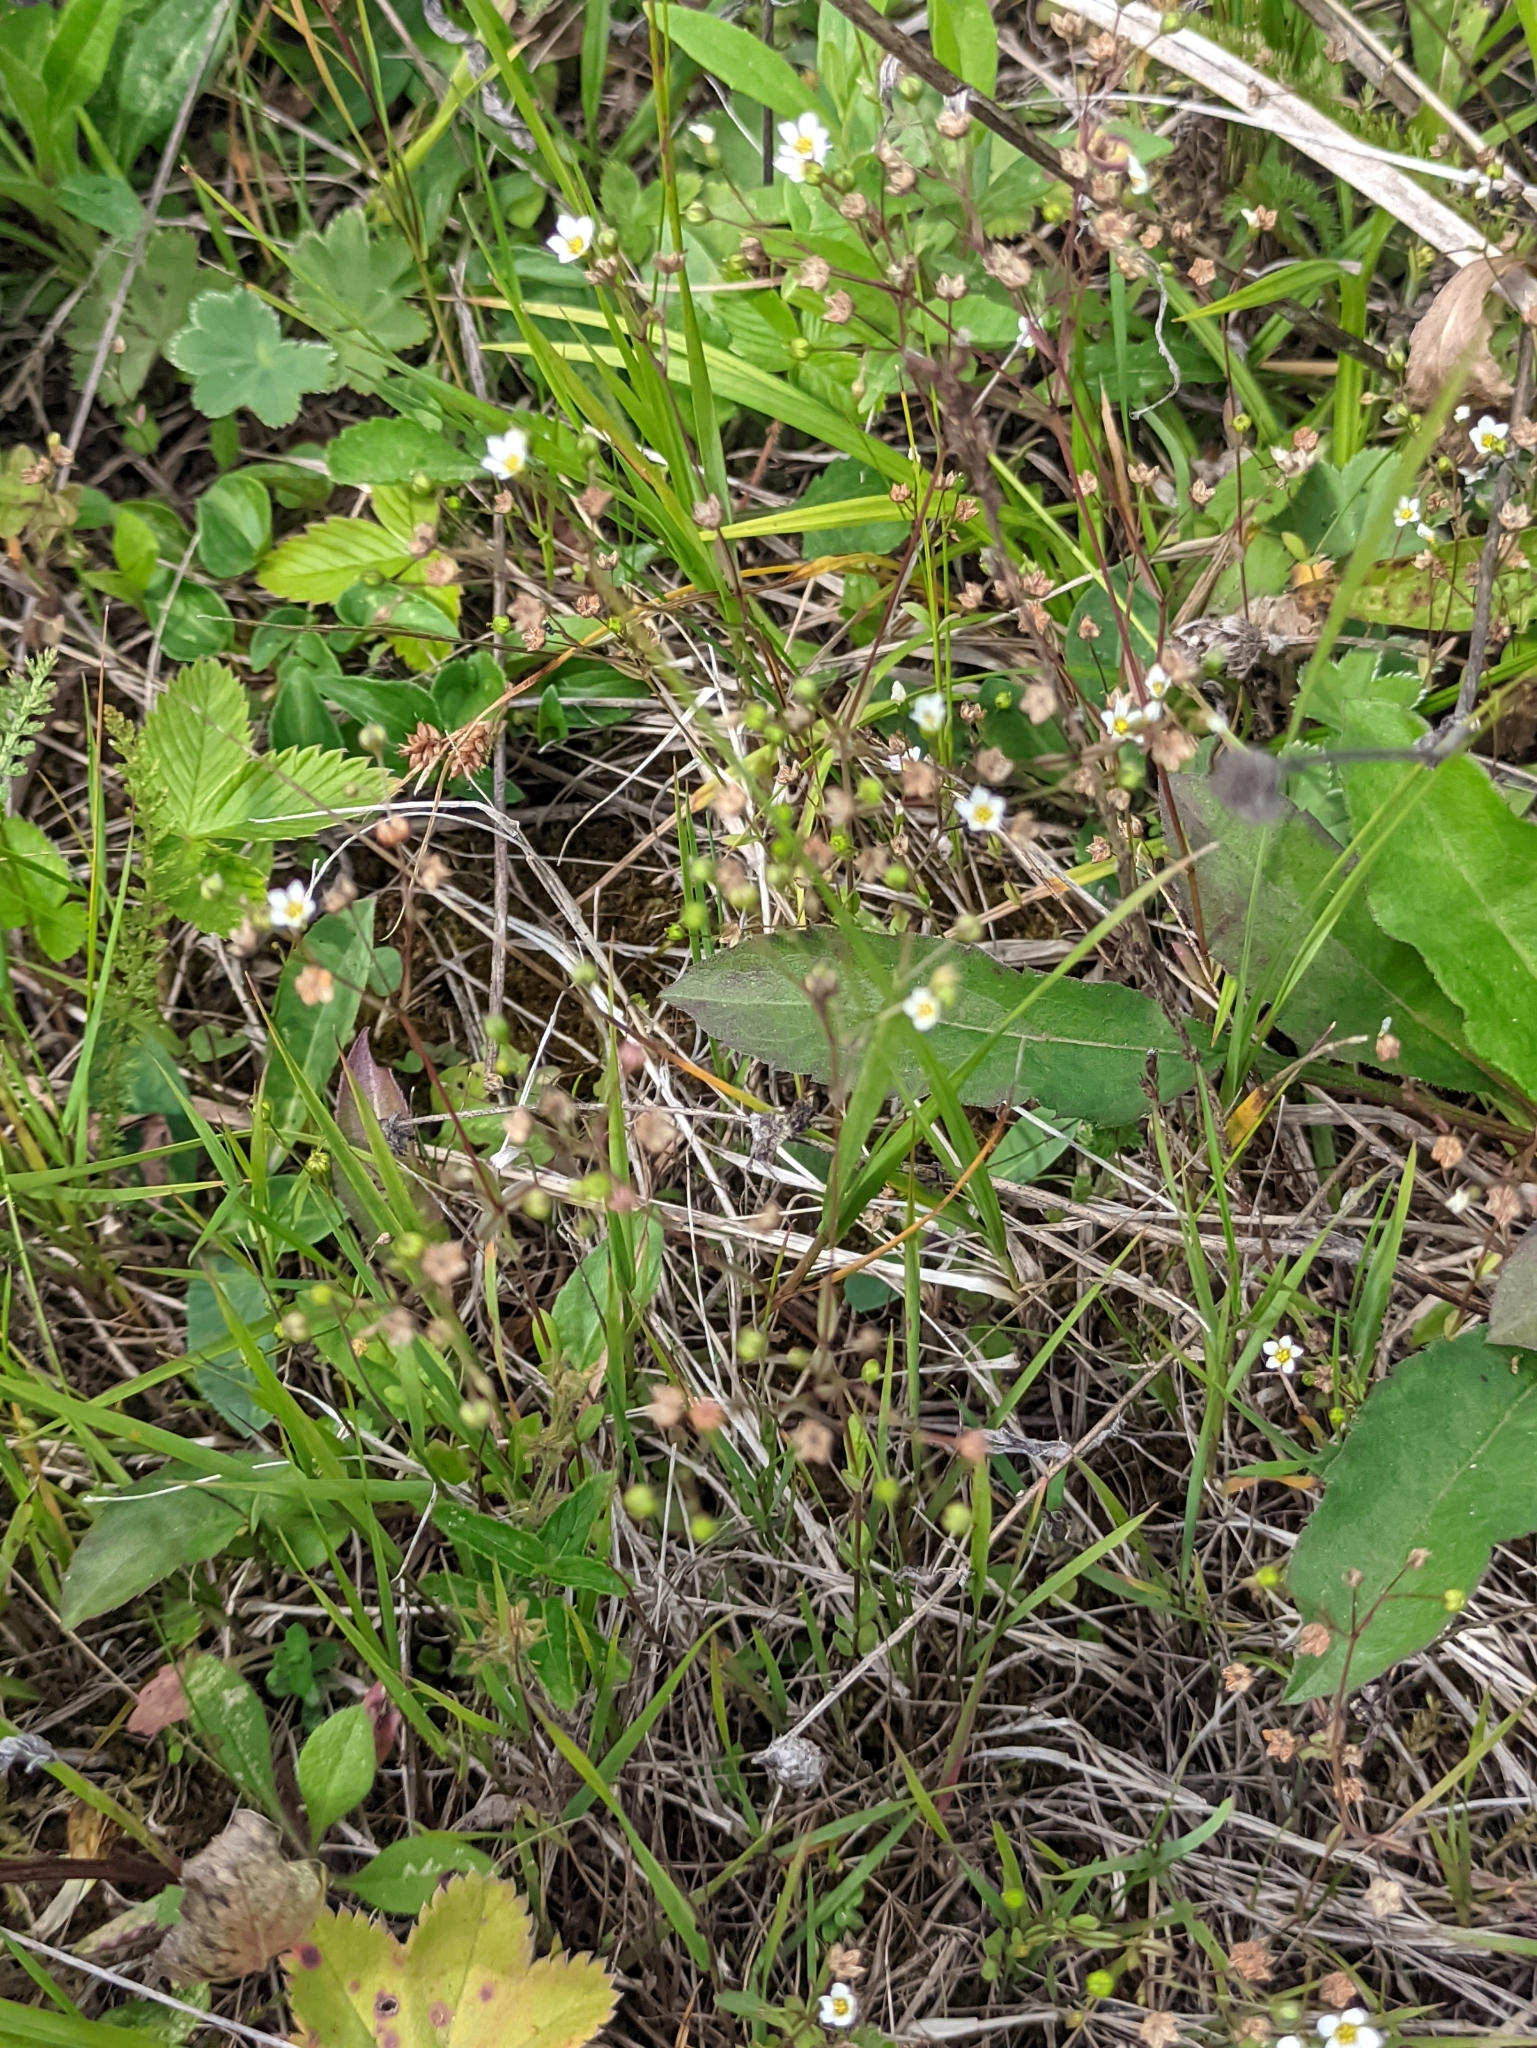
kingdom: Plantae
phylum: Tracheophyta
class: Magnoliopsida
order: Malpighiales
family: Linaceae
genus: Linum
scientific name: Linum catharticum
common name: Fairy flax
